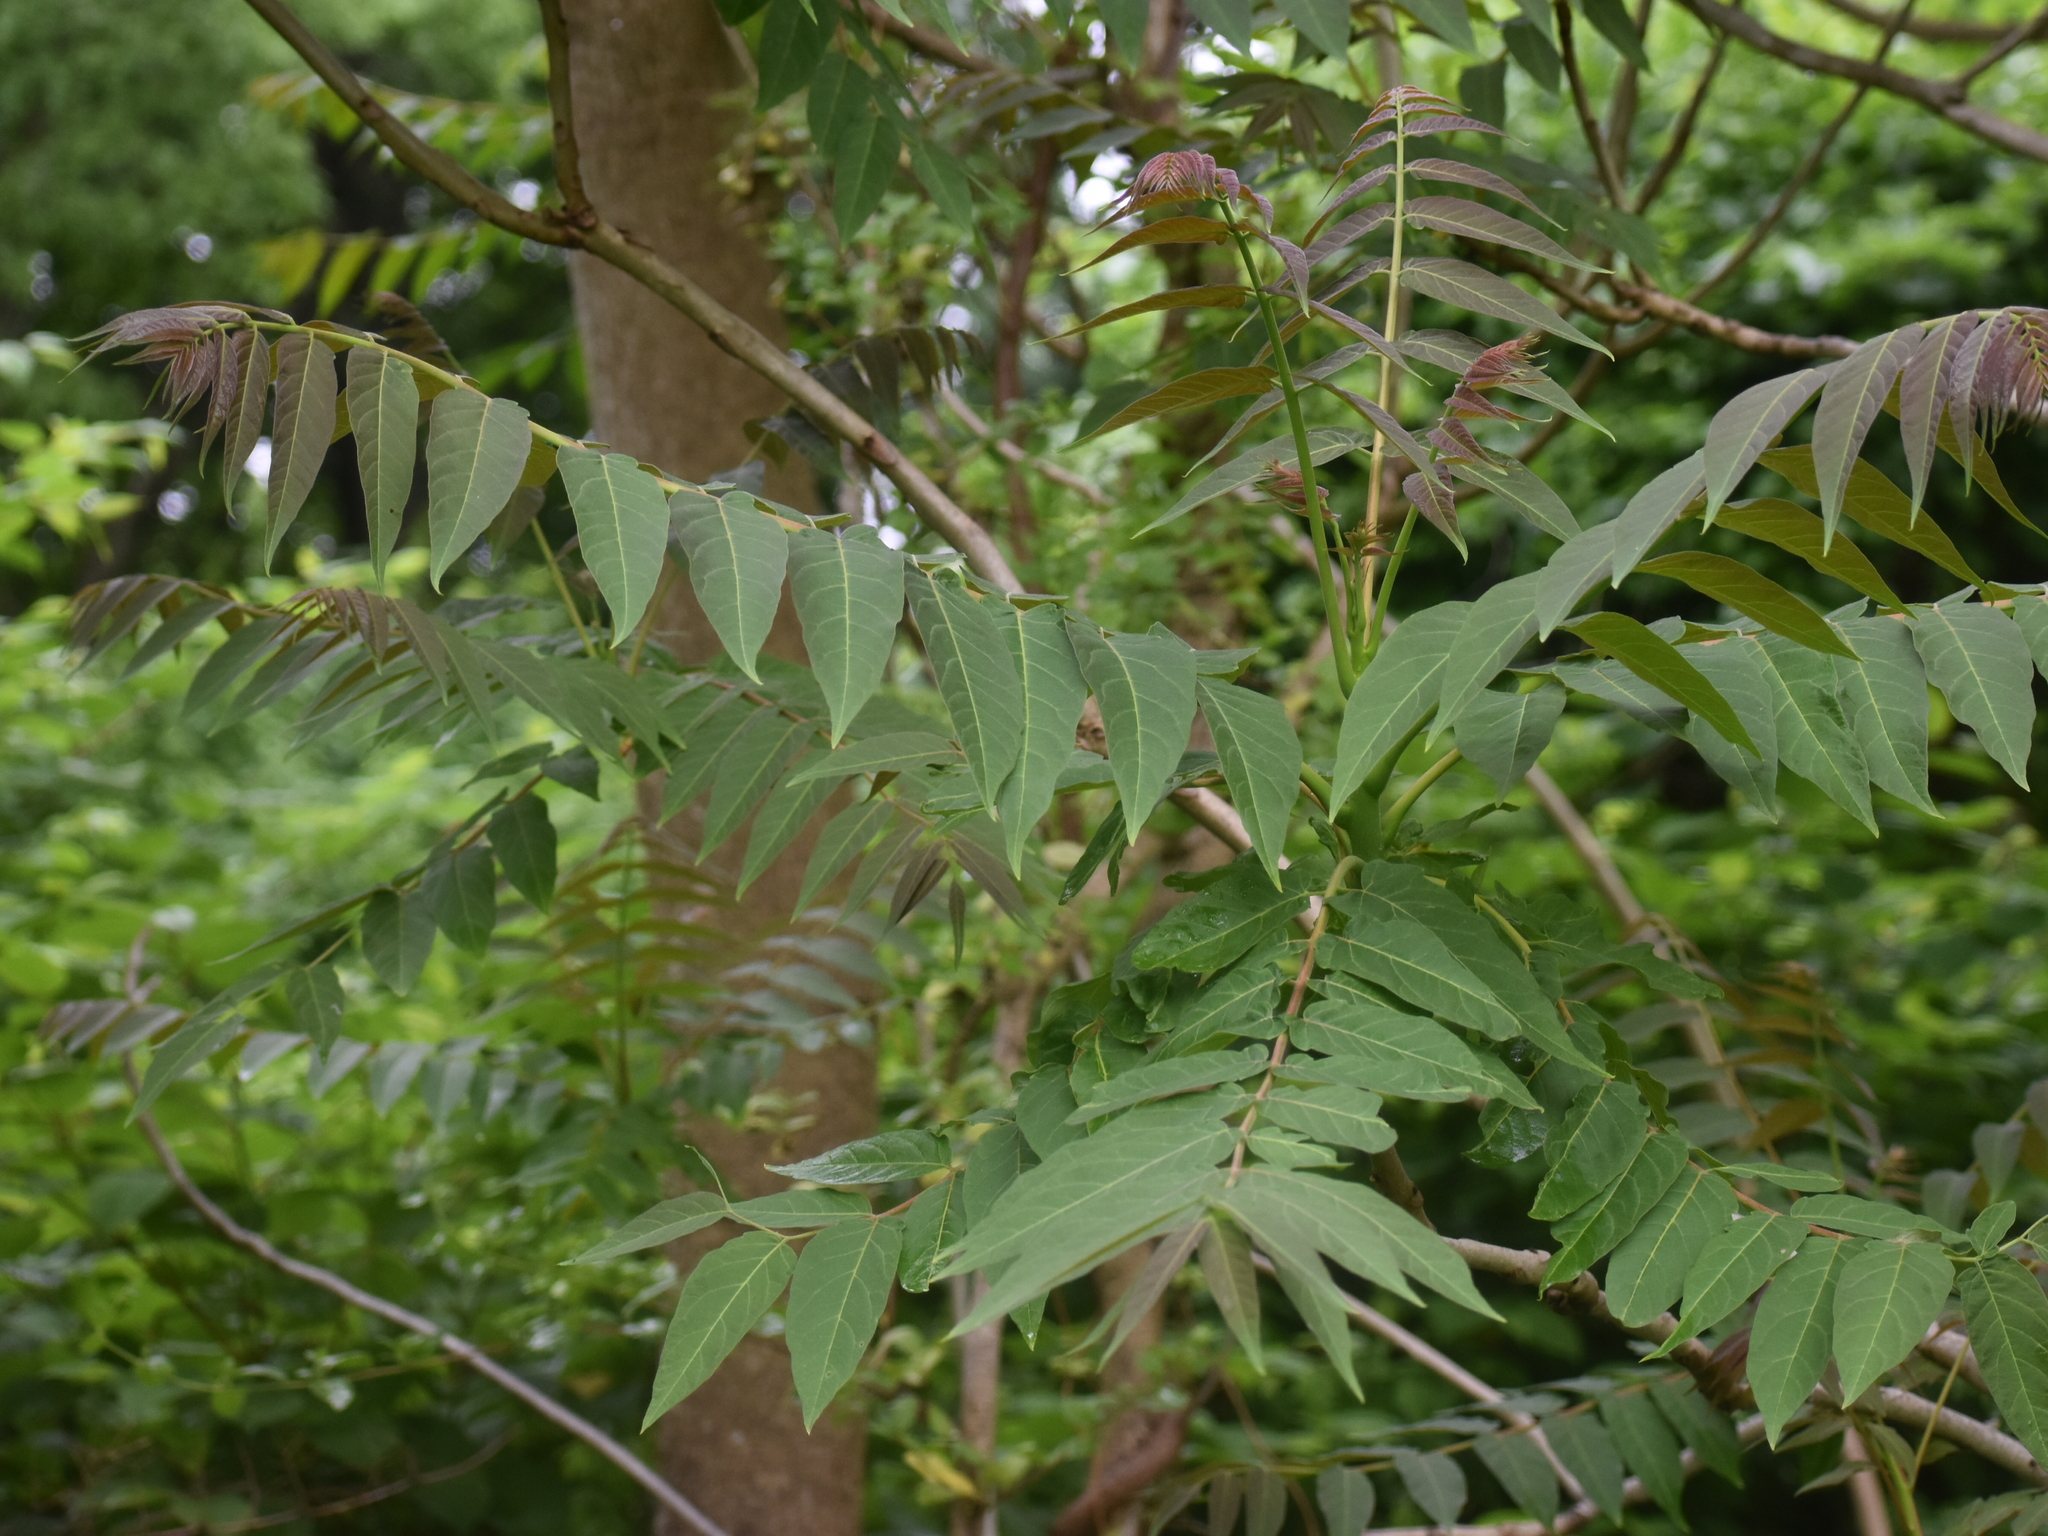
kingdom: Plantae
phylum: Tracheophyta
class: Magnoliopsida
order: Sapindales
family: Simaroubaceae
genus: Ailanthus
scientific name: Ailanthus altissima
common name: Tree-of-heaven
